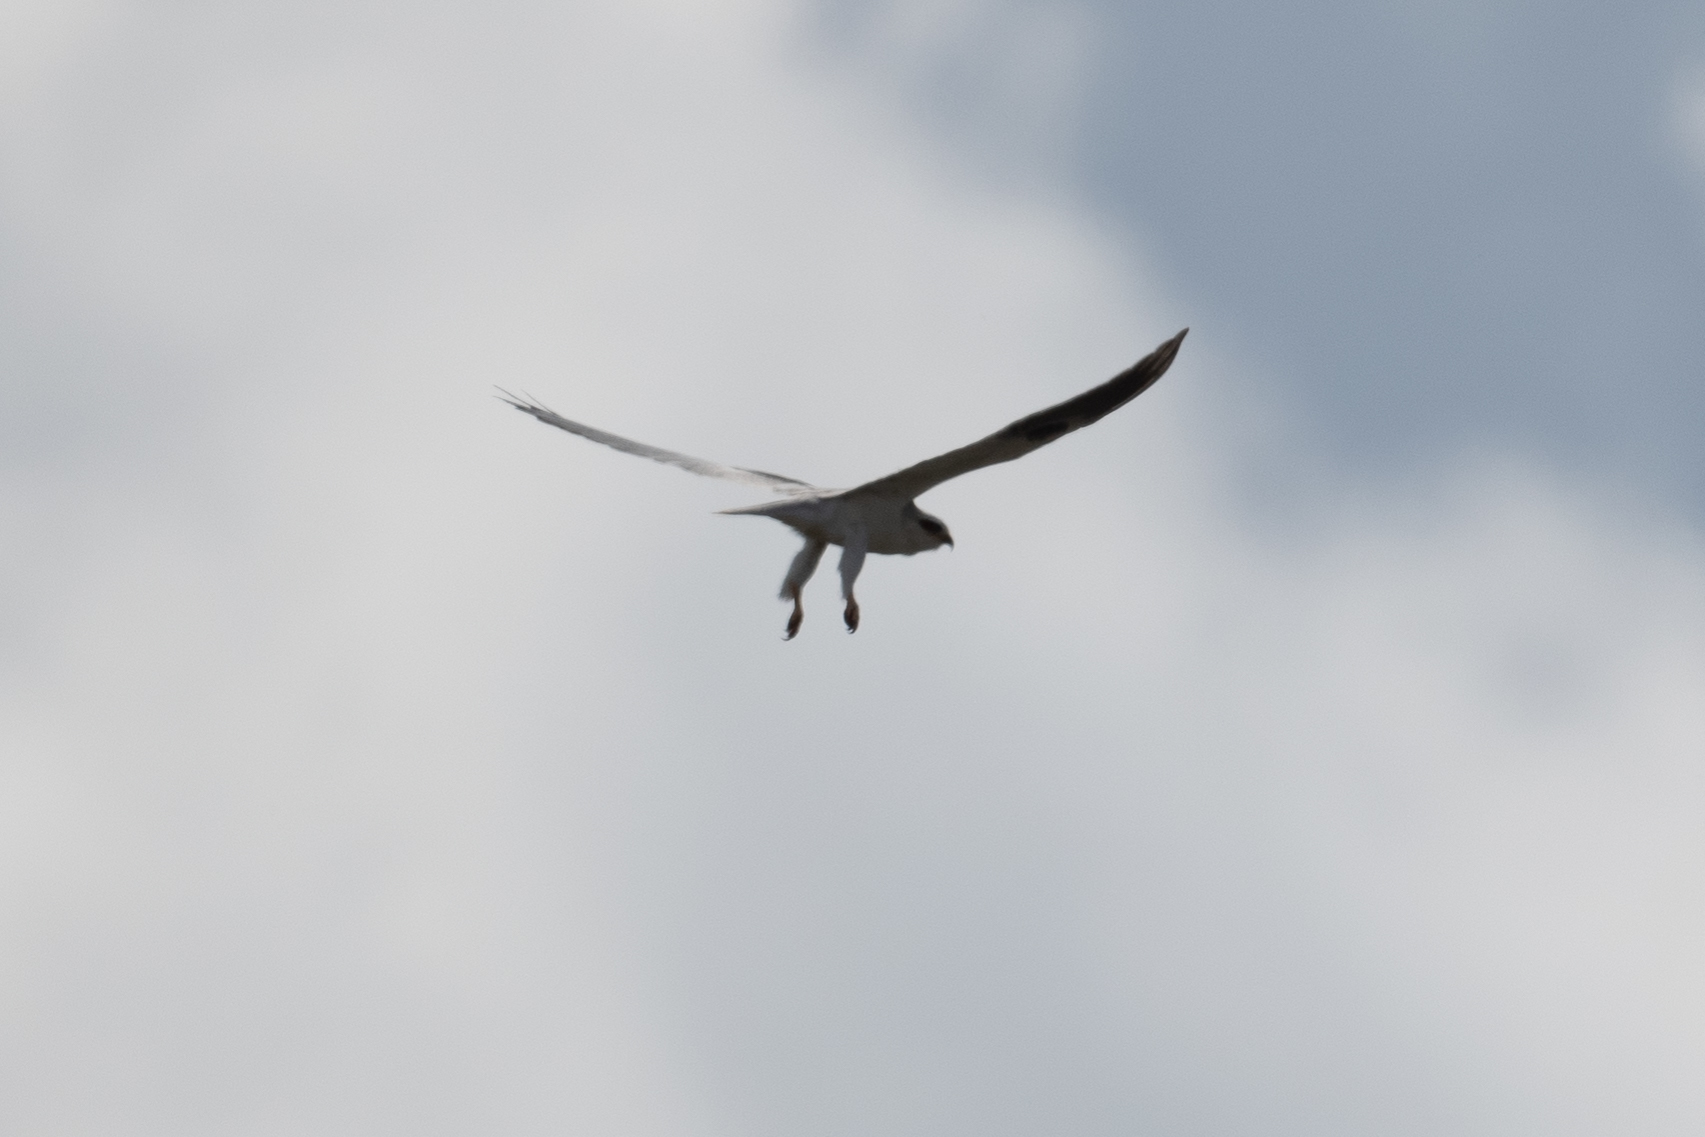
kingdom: Animalia
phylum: Chordata
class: Aves
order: Accipitriformes
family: Accipitridae
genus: Elanus
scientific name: Elanus leucurus
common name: White-tailed kite
